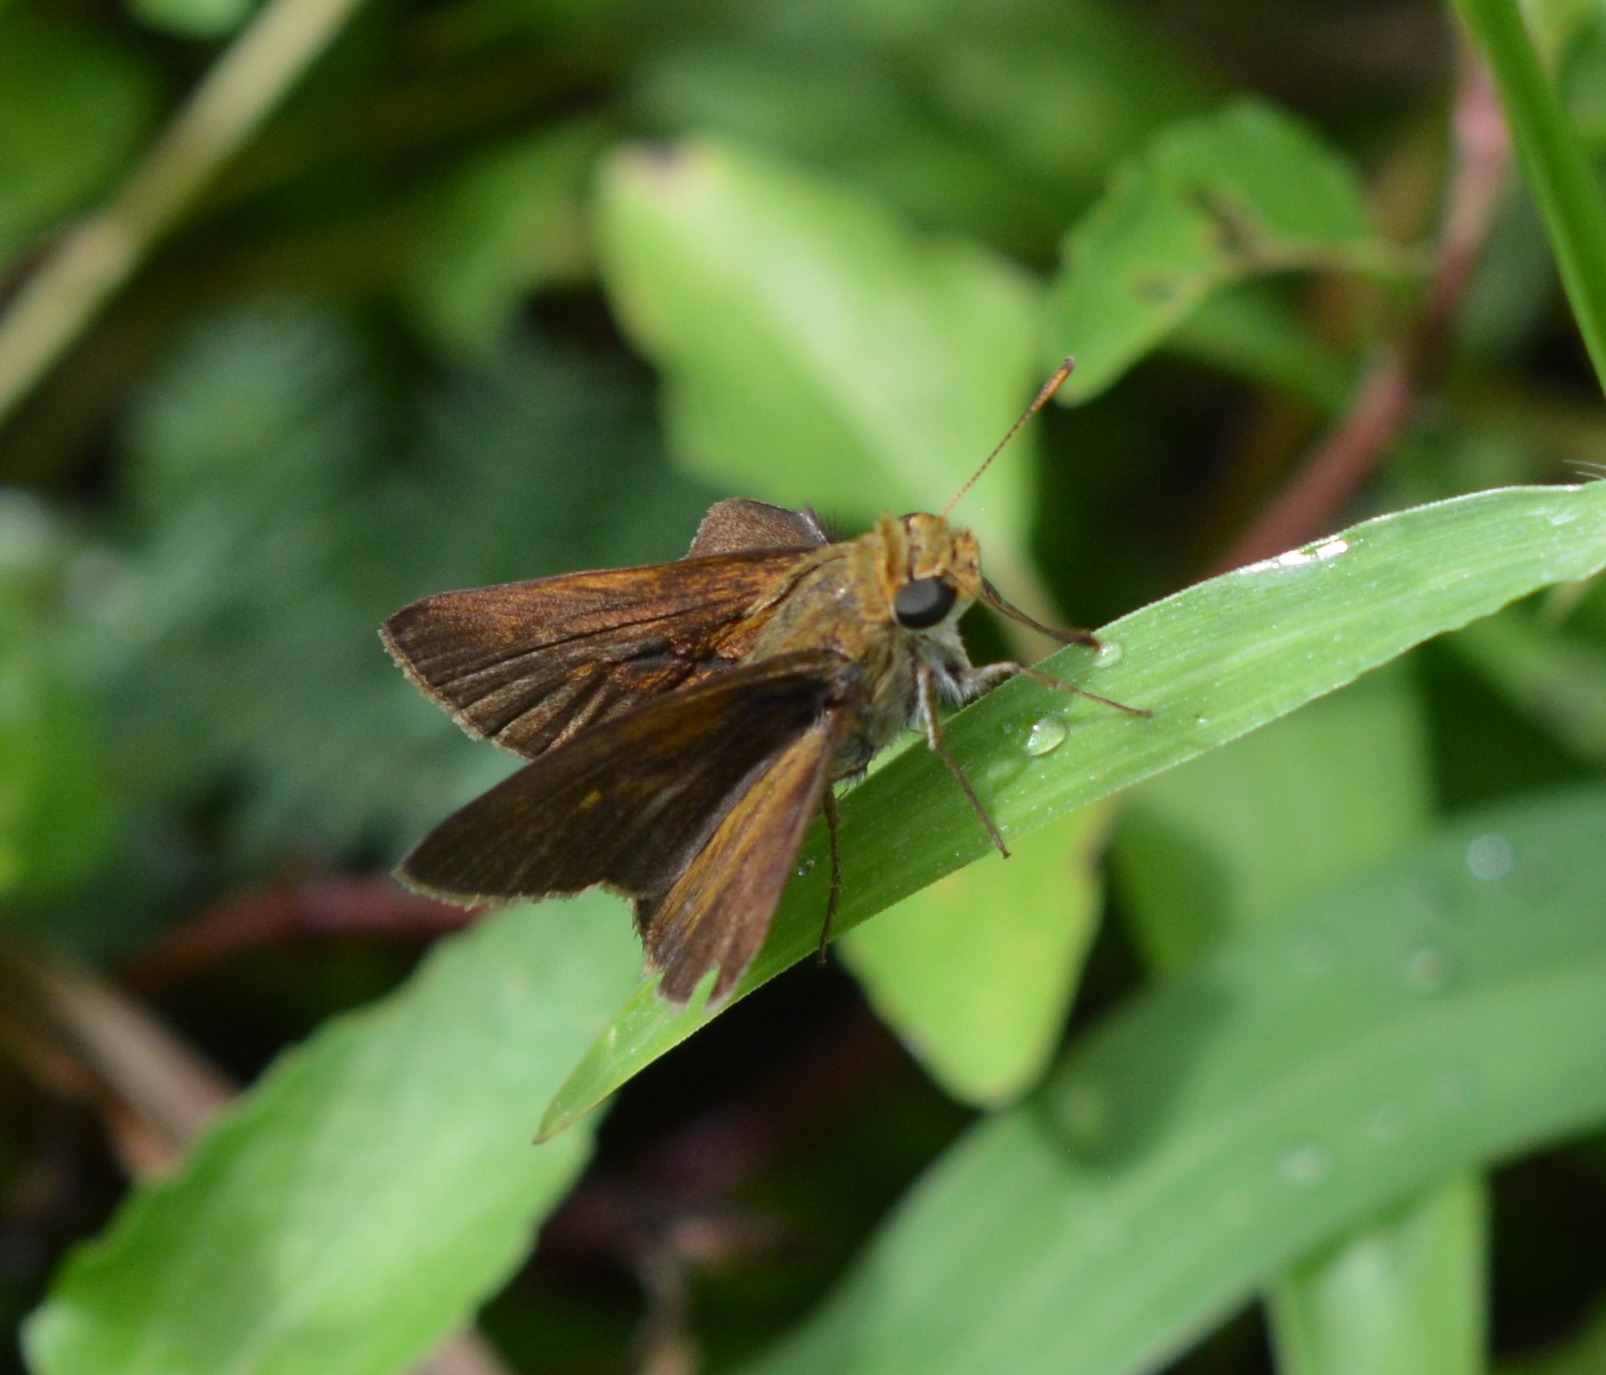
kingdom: Animalia
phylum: Arthropoda
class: Insecta
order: Lepidoptera
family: Hesperiidae
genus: Euphyes
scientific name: Euphyes vestris
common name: Dun skipper
